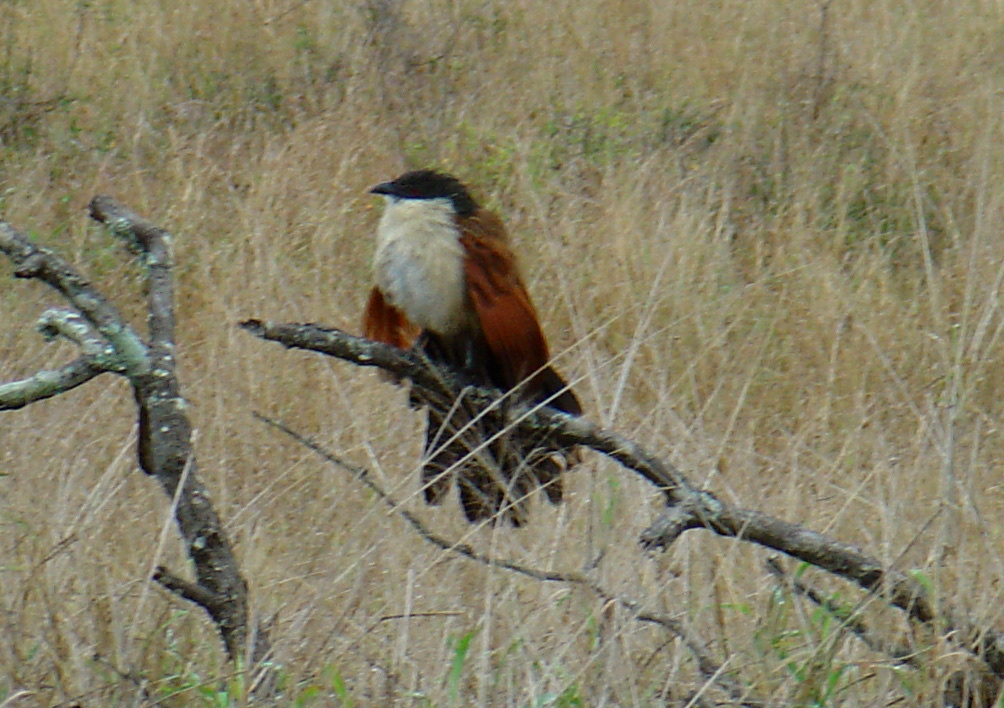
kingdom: Animalia
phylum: Chordata
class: Aves
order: Cuculiformes
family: Cuculidae
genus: Centropus
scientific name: Centropus superciliosus
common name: White-browed coucal
